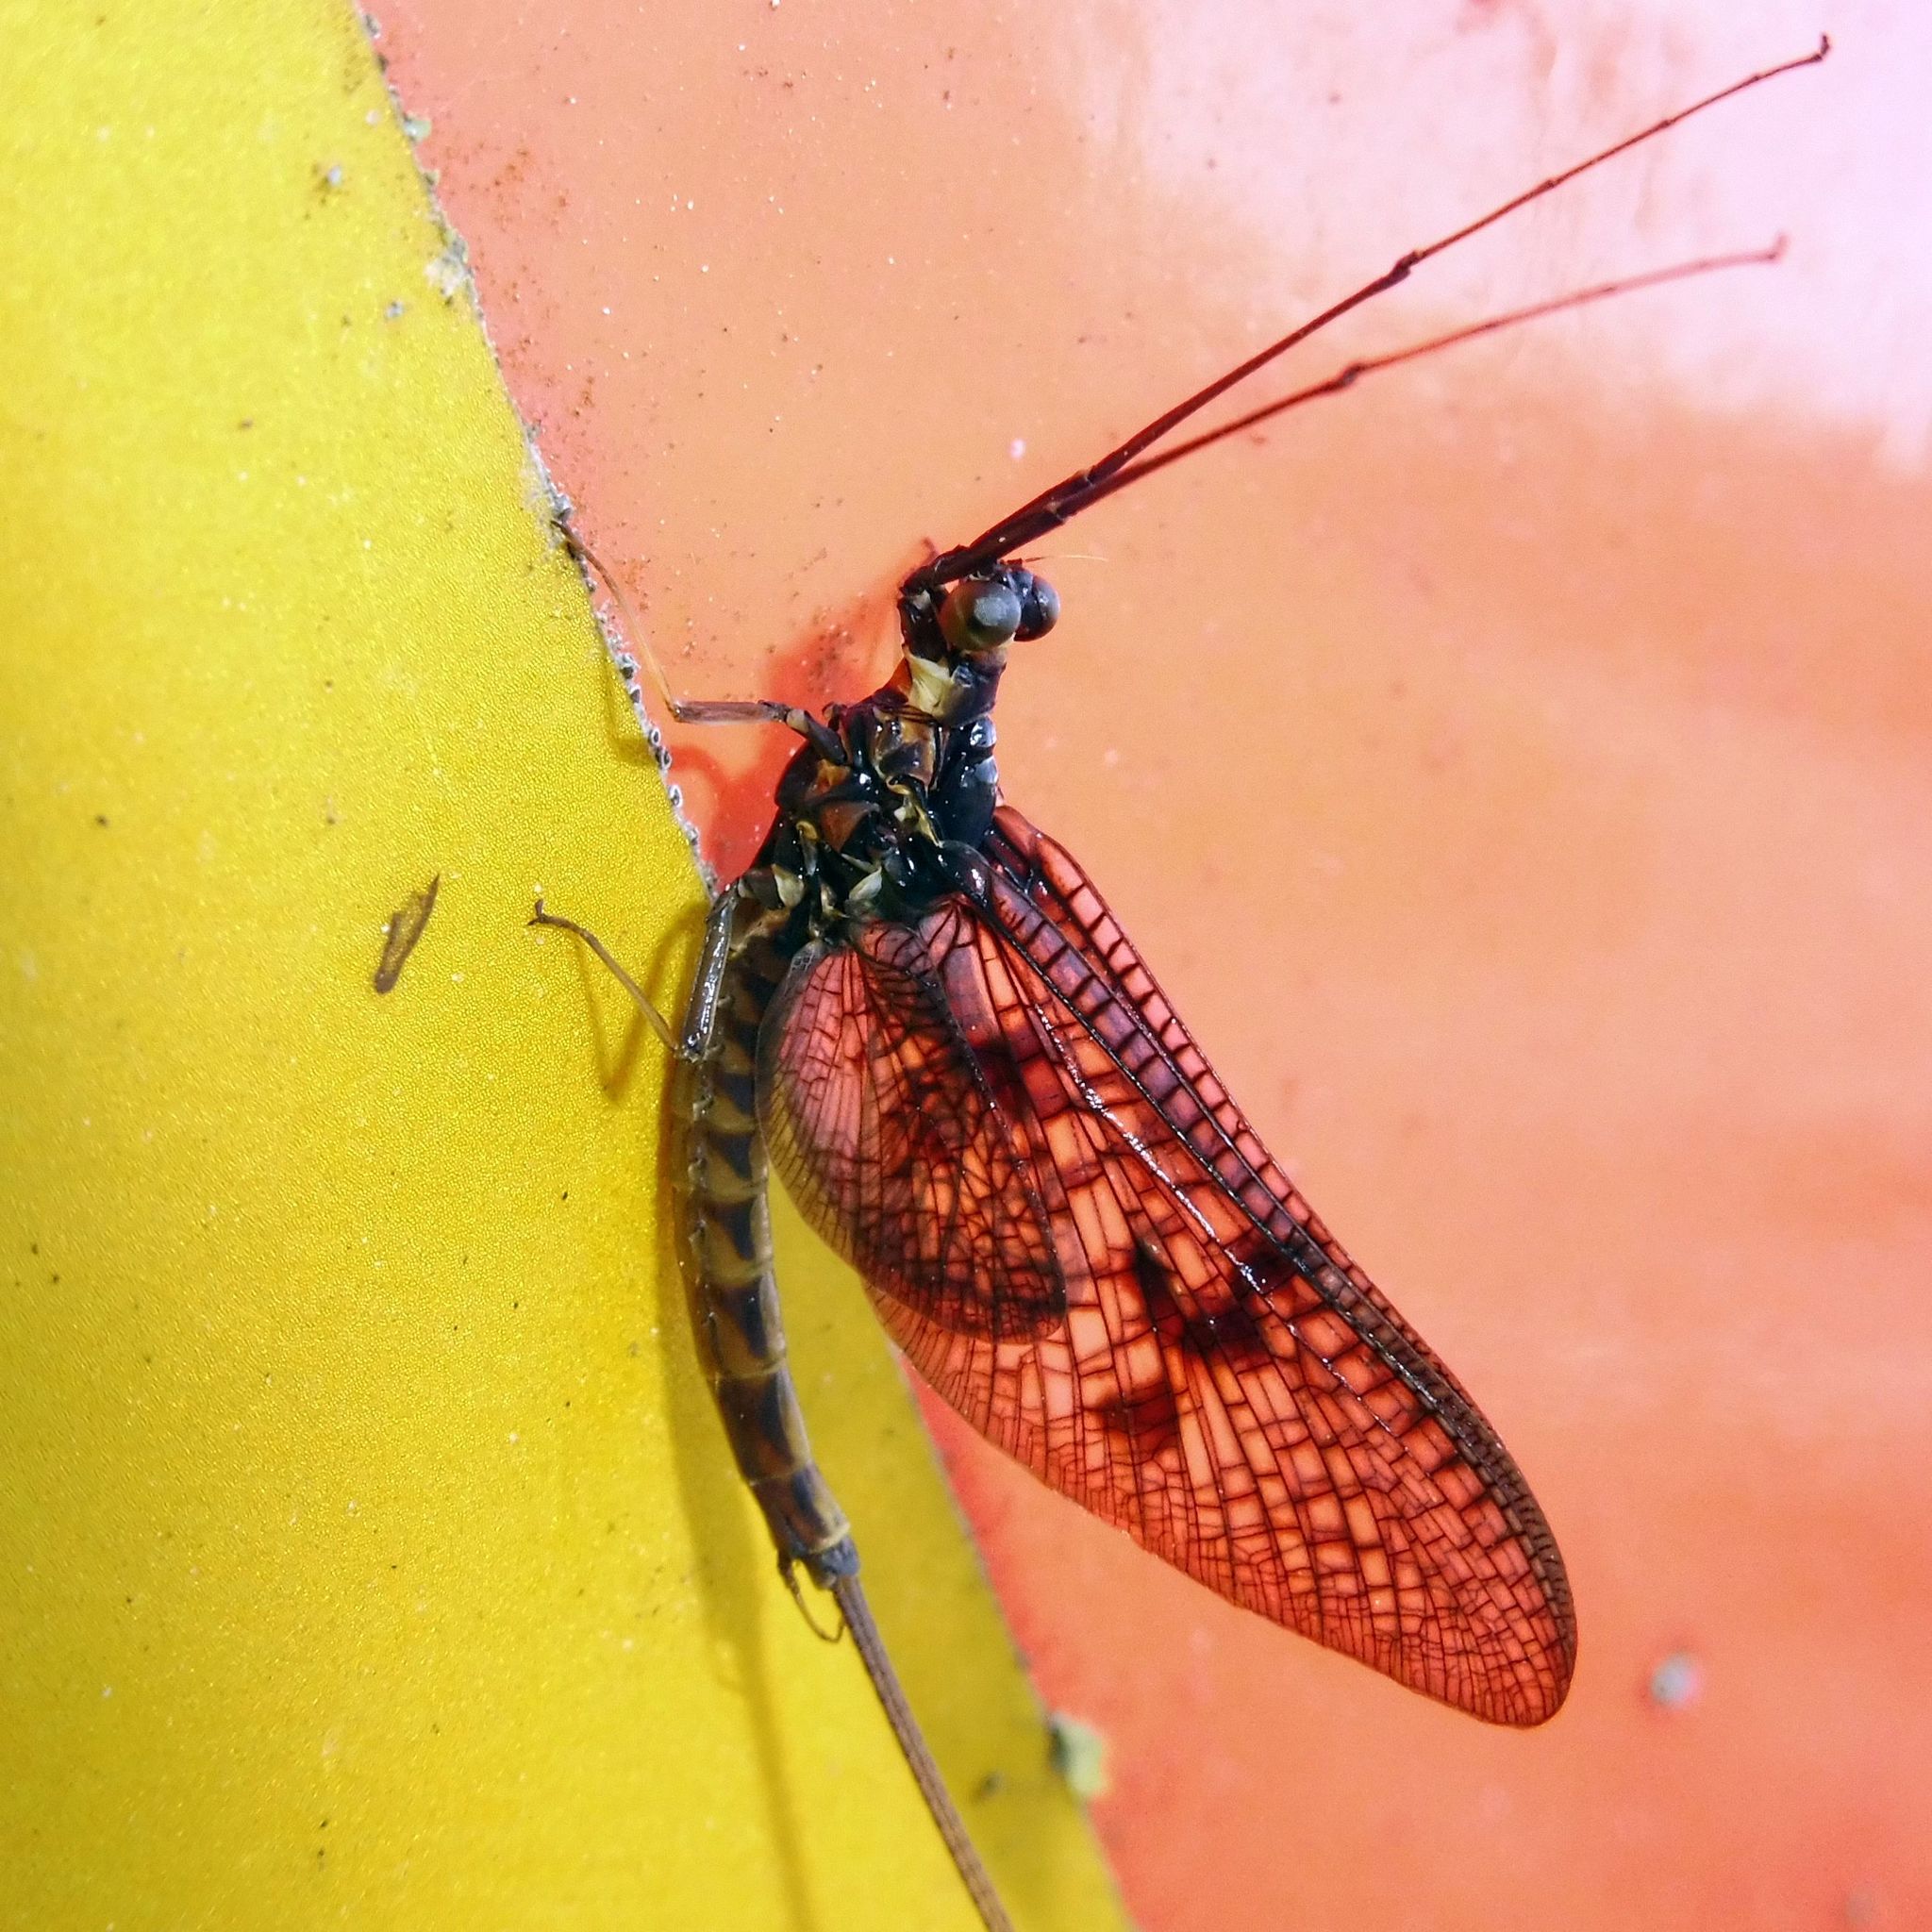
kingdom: Animalia
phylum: Arthropoda
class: Insecta
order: Ephemeroptera
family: Ephemeridae
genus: Ephemera
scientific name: Ephemera vulgata
